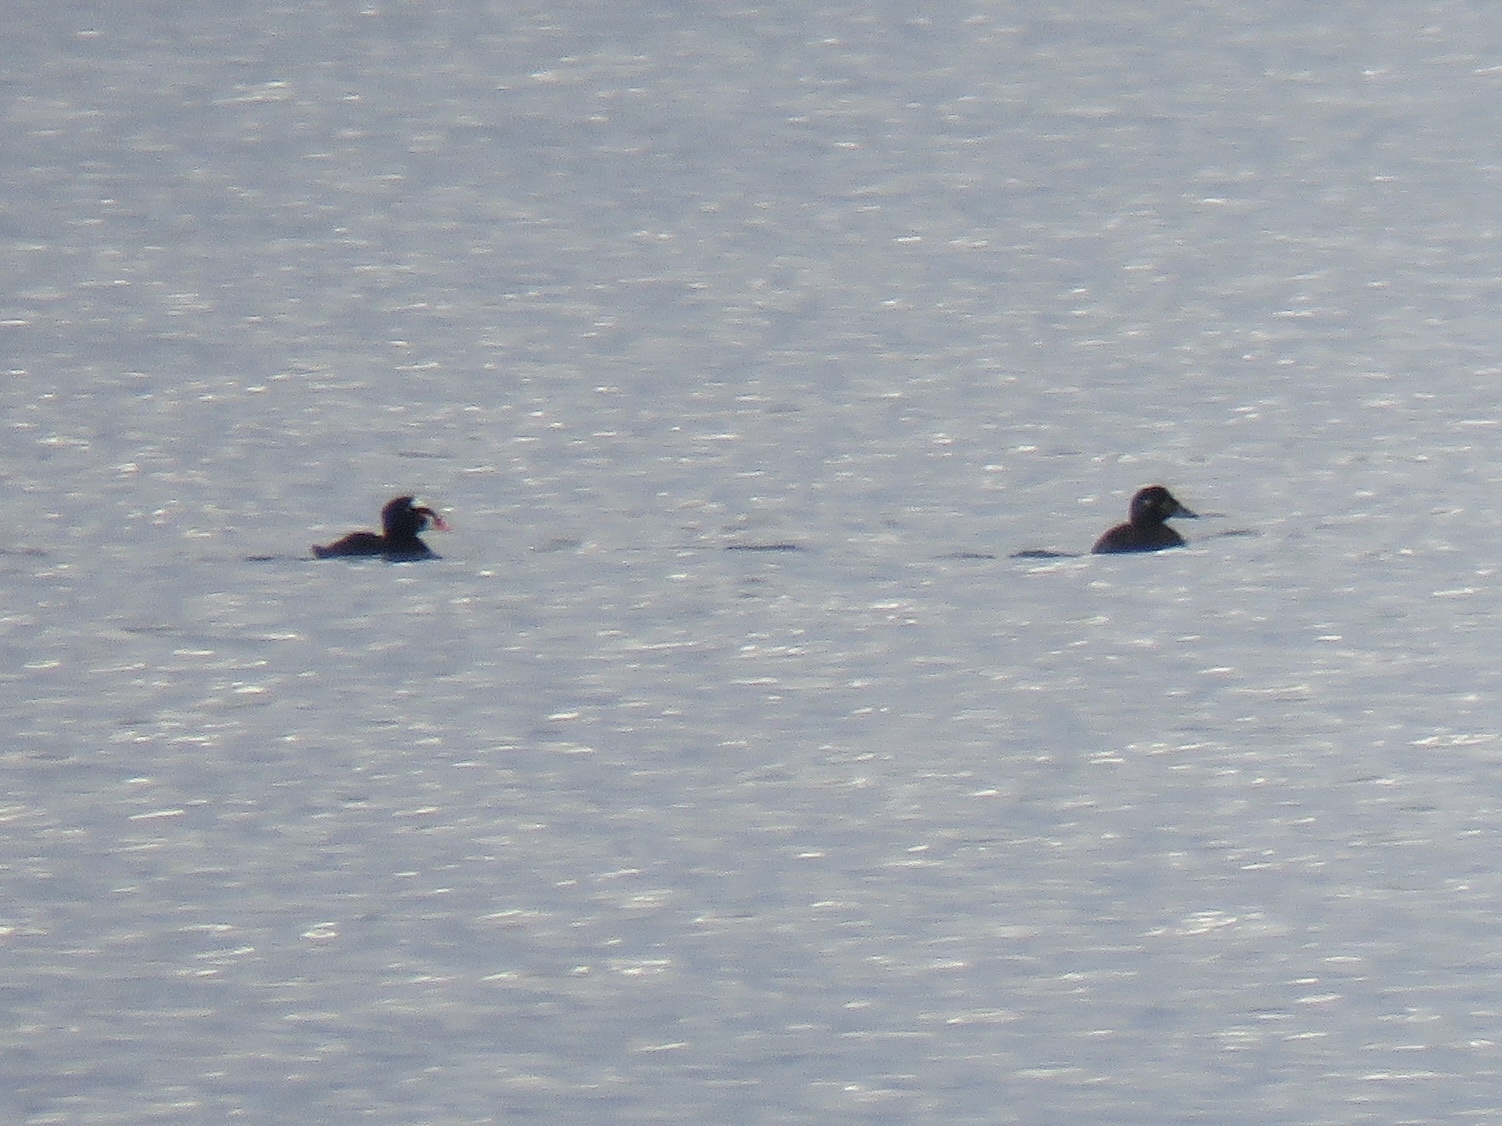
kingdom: Animalia
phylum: Chordata
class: Aves
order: Anseriformes
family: Anatidae
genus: Melanitta
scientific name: Melanitta perspicillata
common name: Surf scoter
